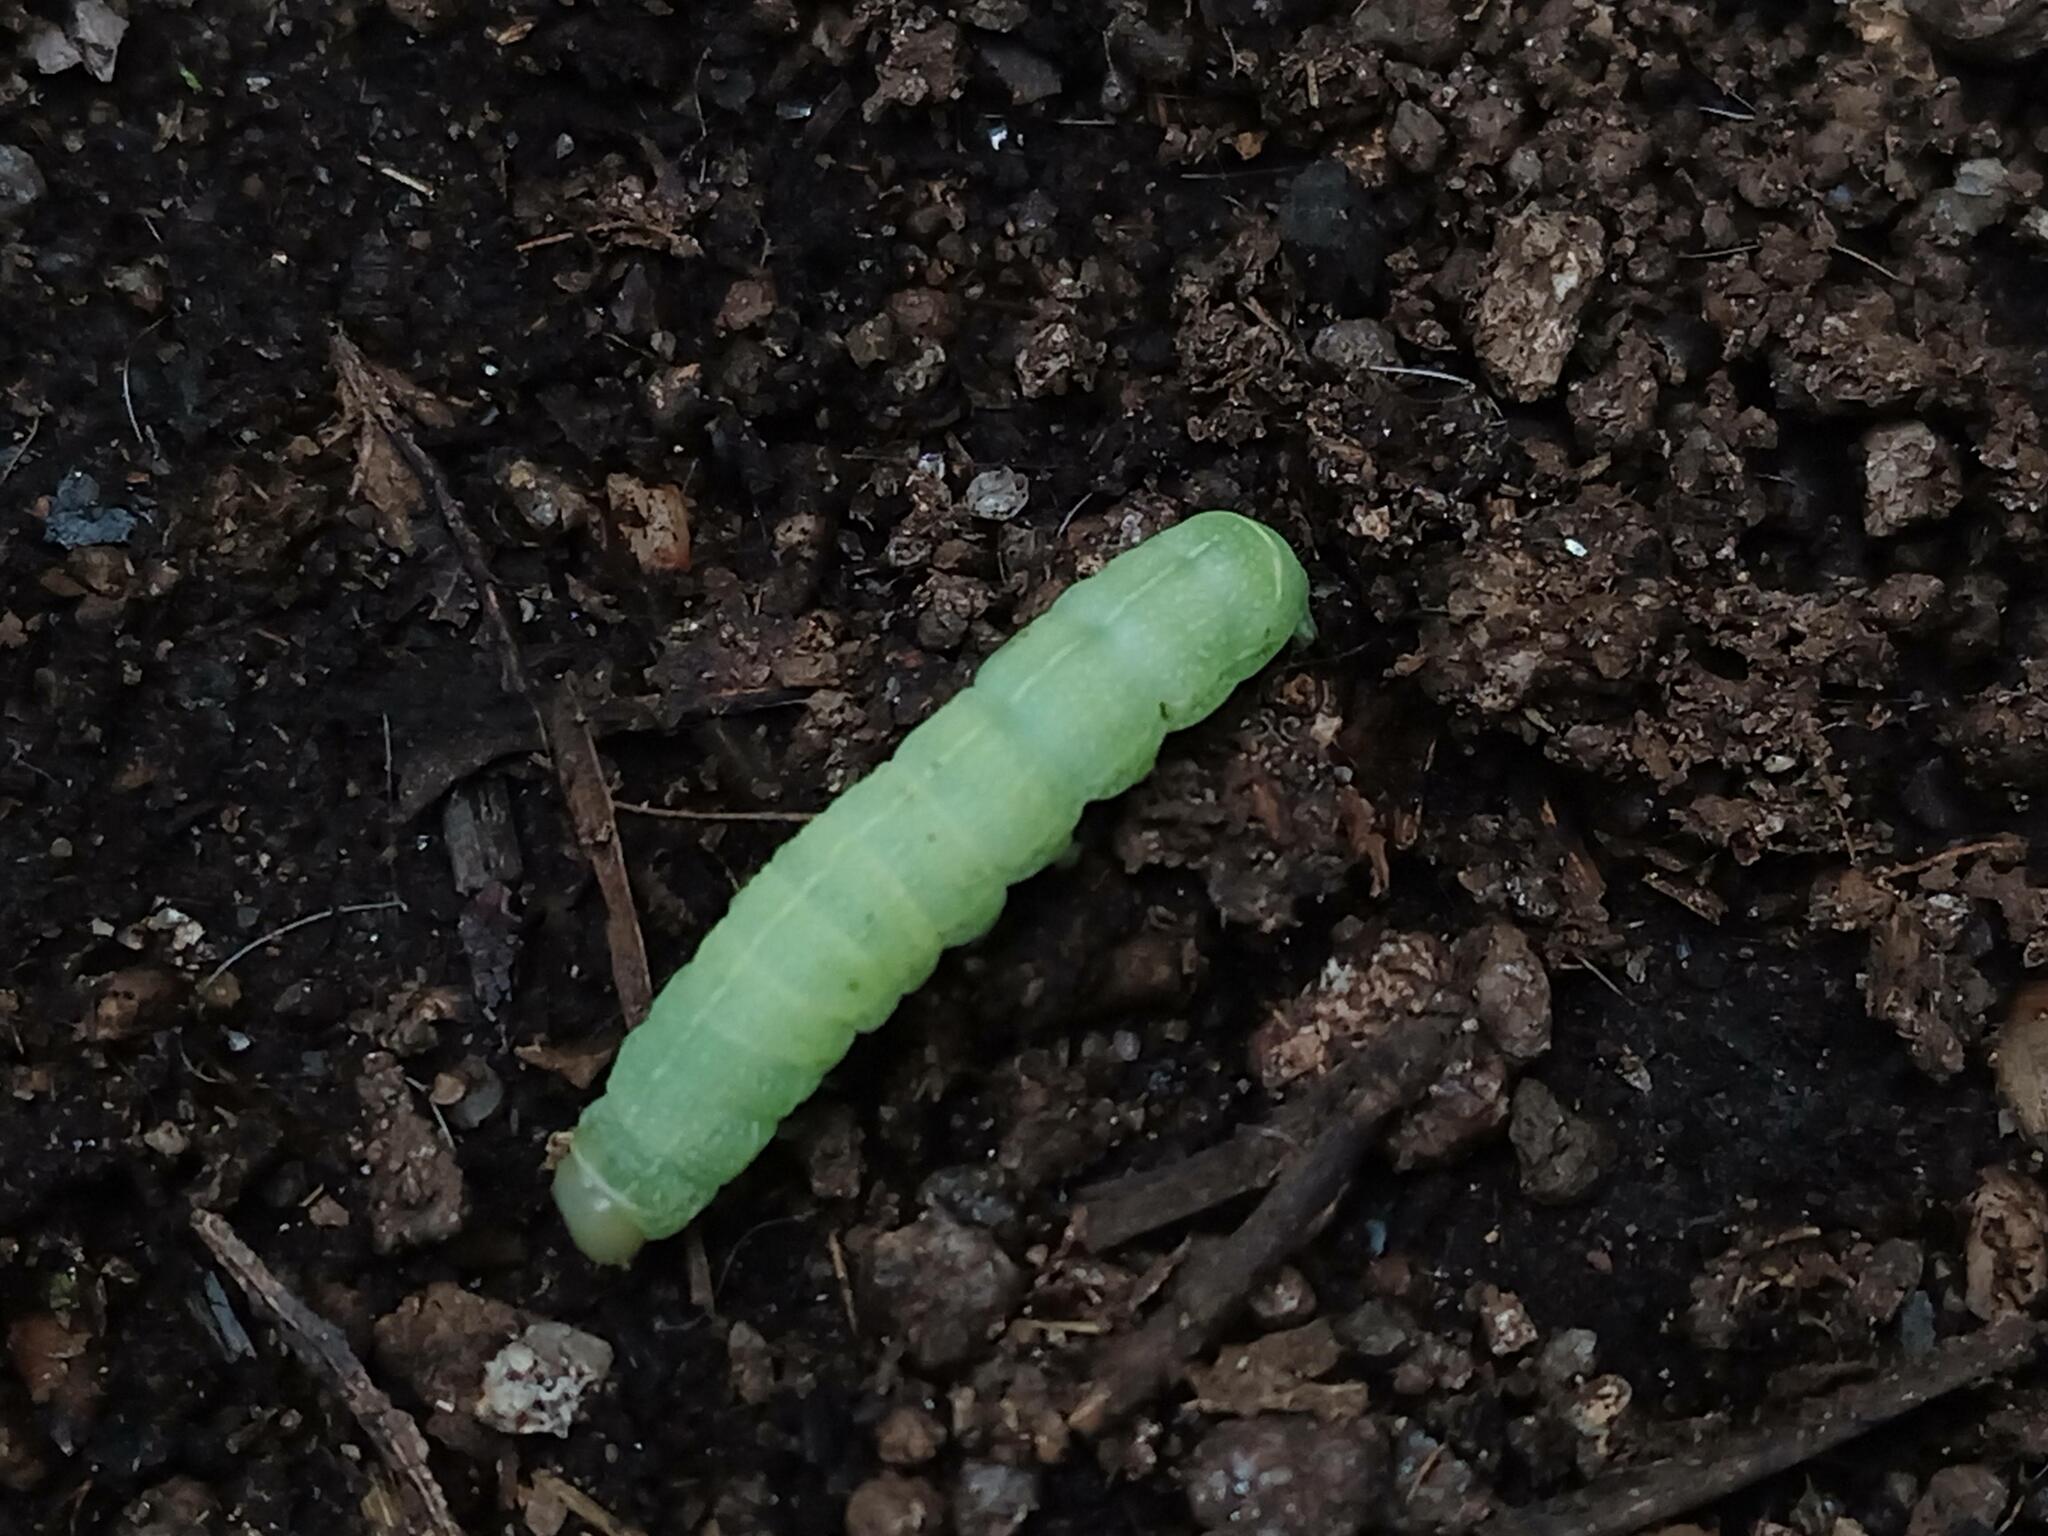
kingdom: Animalia
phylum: Arthropoda
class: Insecta
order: Lepidoptera
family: Noctuidae
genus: Orthosia
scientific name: Orthosia cerasi
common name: Common quaker
